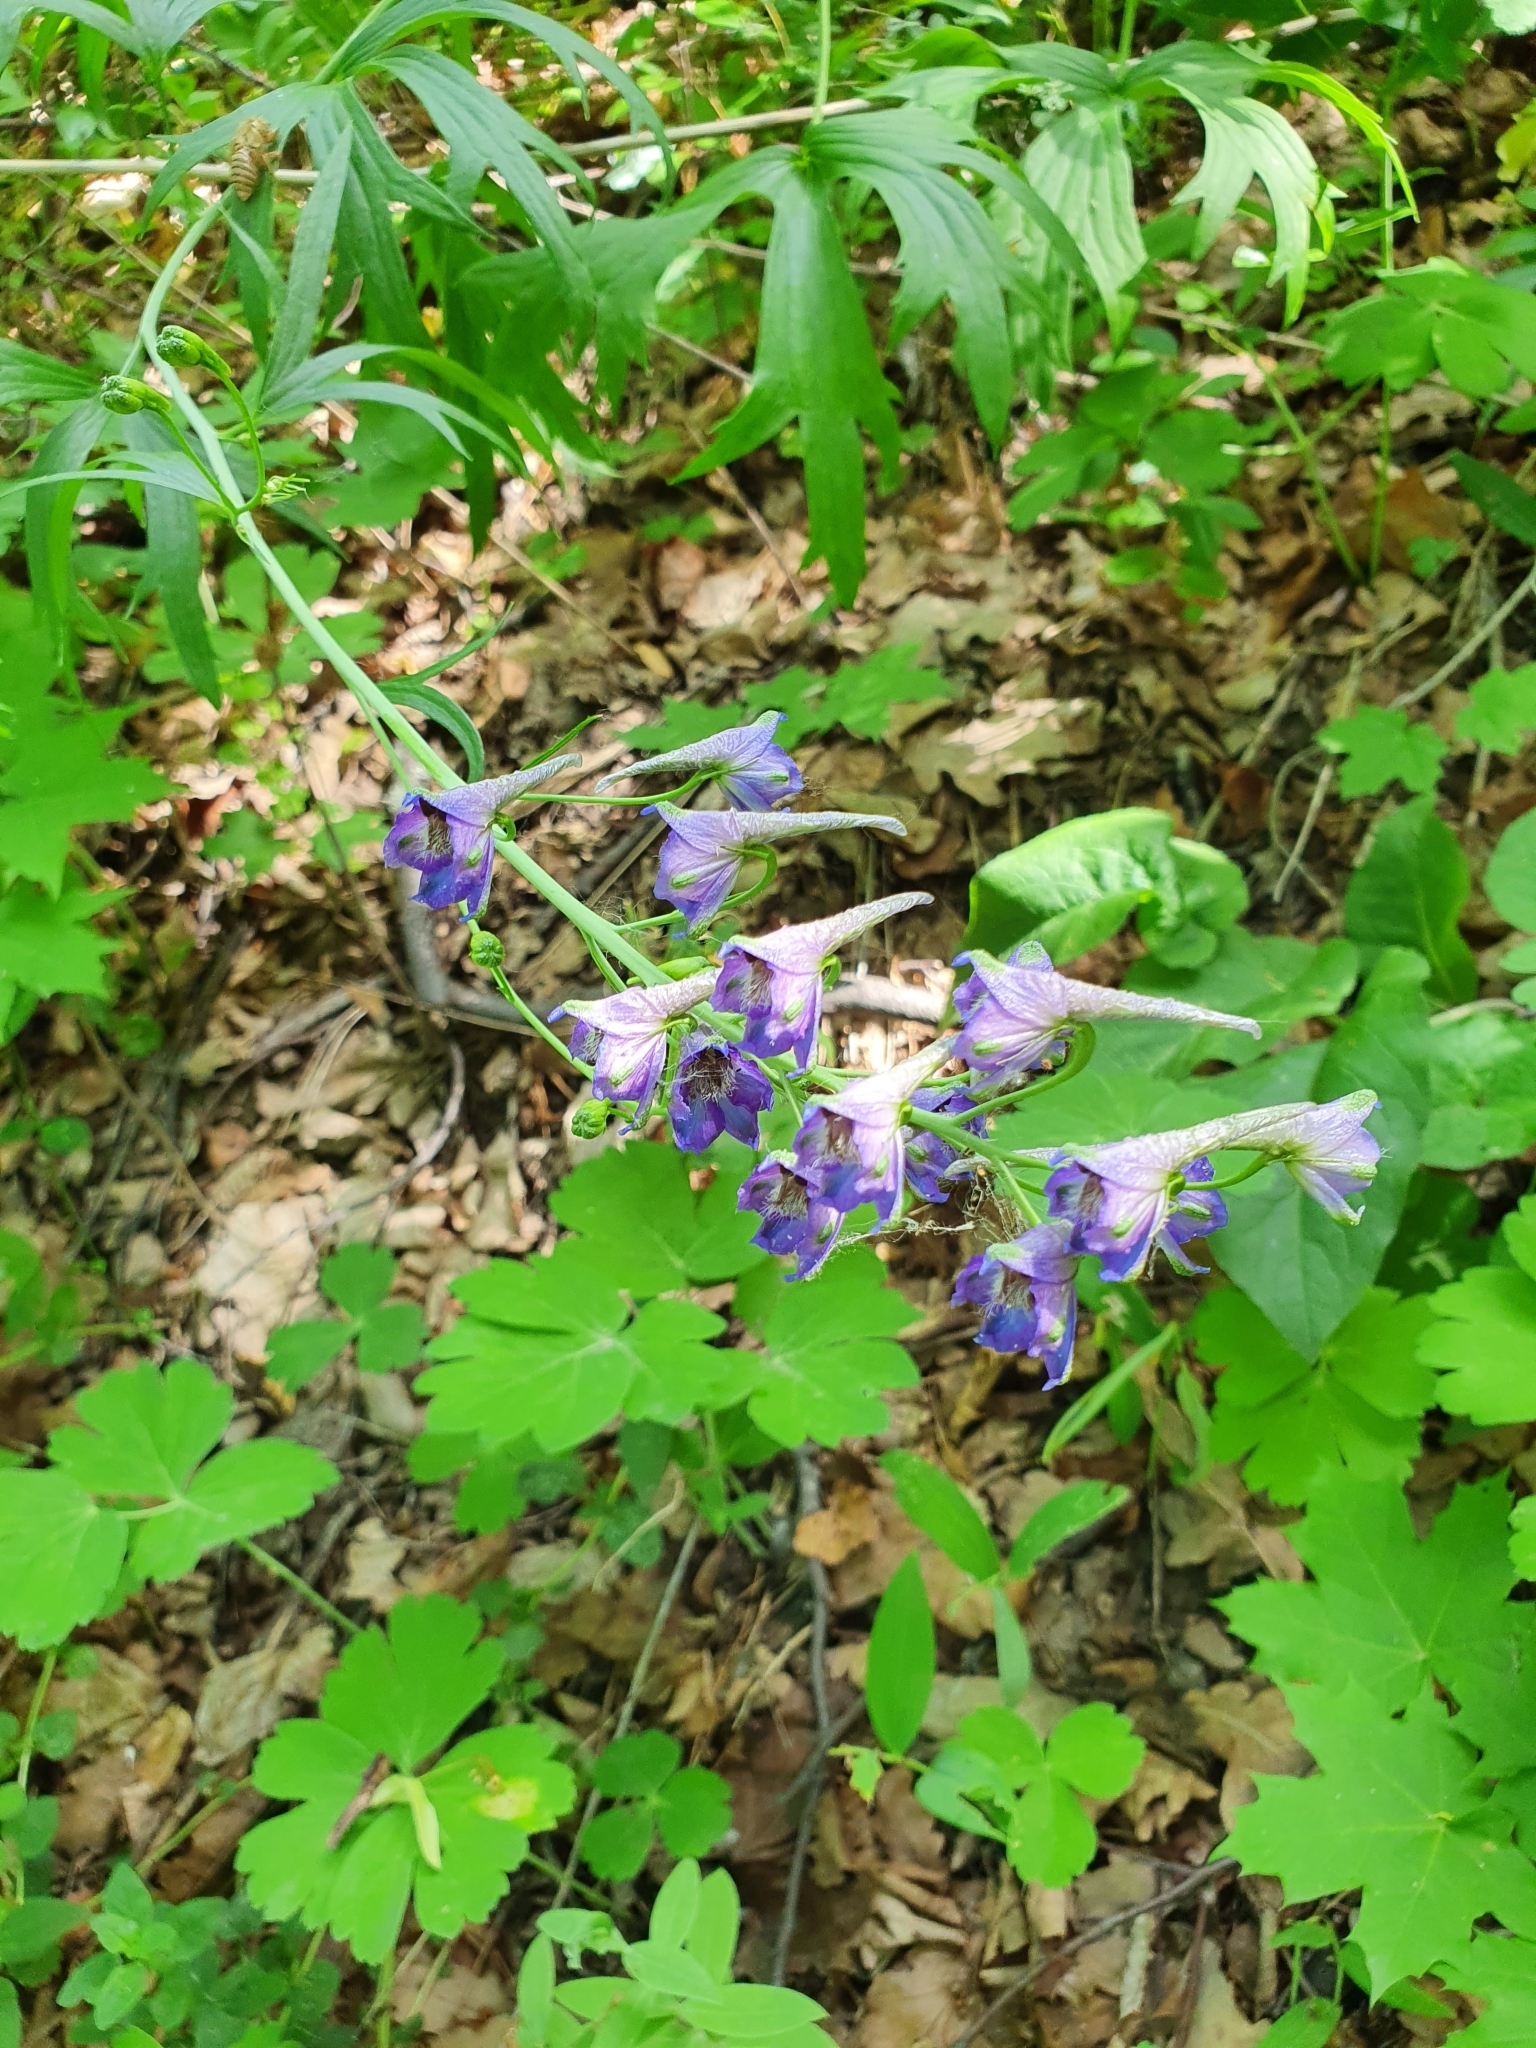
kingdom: Plantae
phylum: Tracheophyta
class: Magnoliopsida
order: Ranunculales
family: Ranunculaceae
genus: Delphinium
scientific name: Delphinium cuneatum
